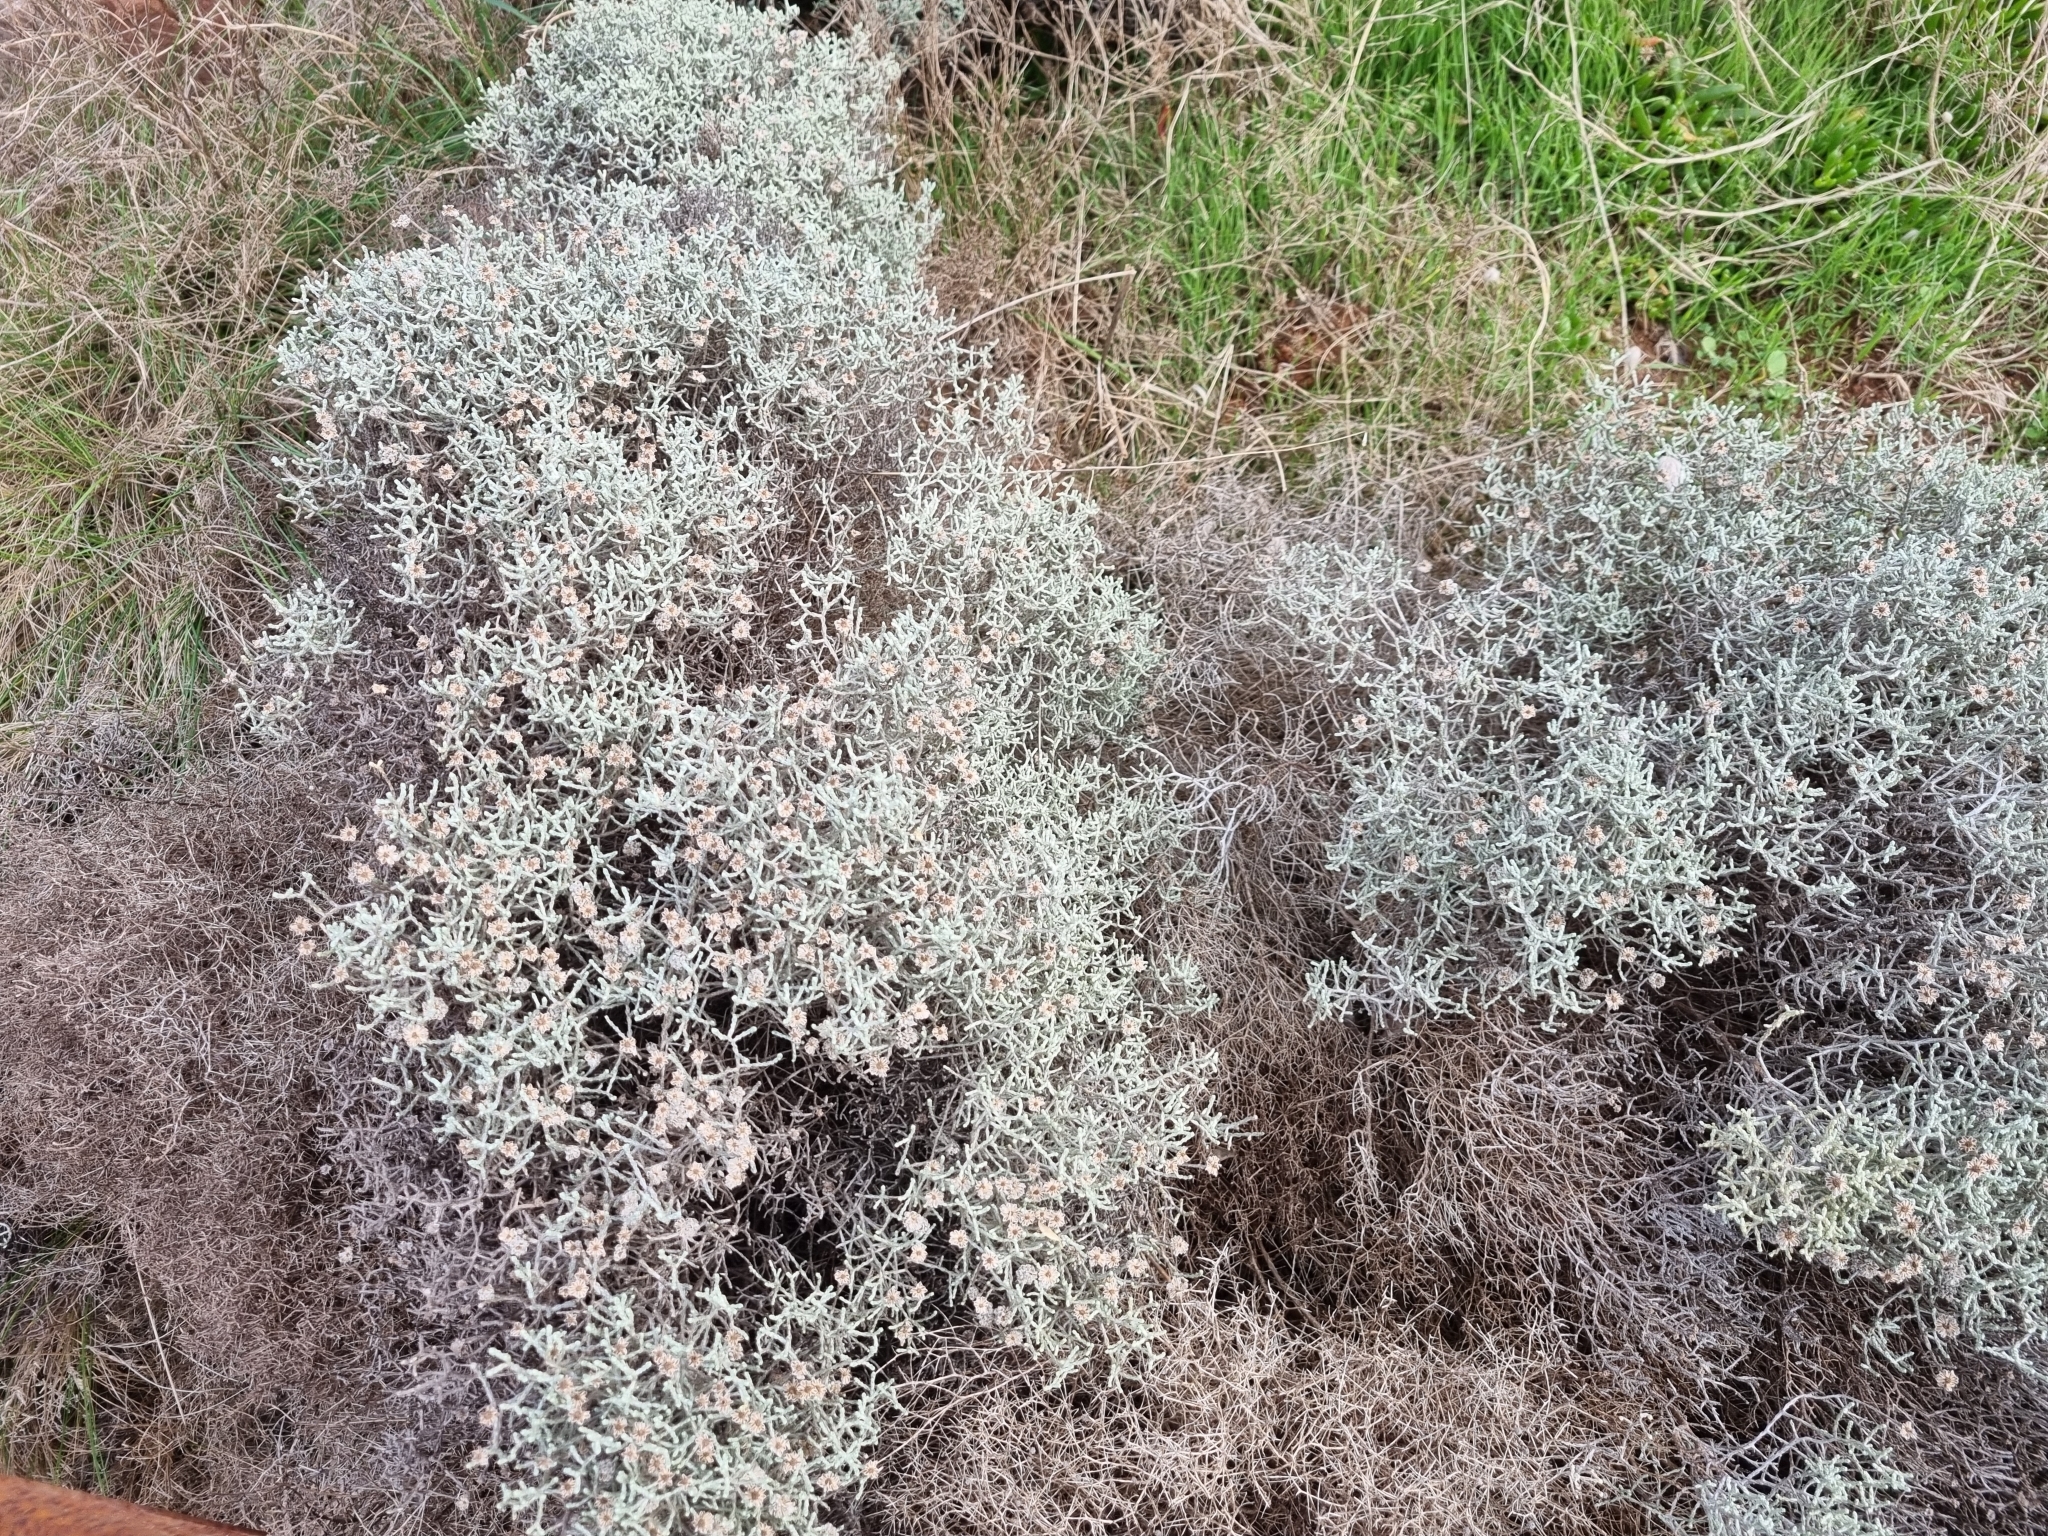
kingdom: Plantae
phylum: Tracheophyta
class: Magnoliopsida
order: Asterales
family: Asteraceae
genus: Calocephalus
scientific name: Calocephalus brownii
